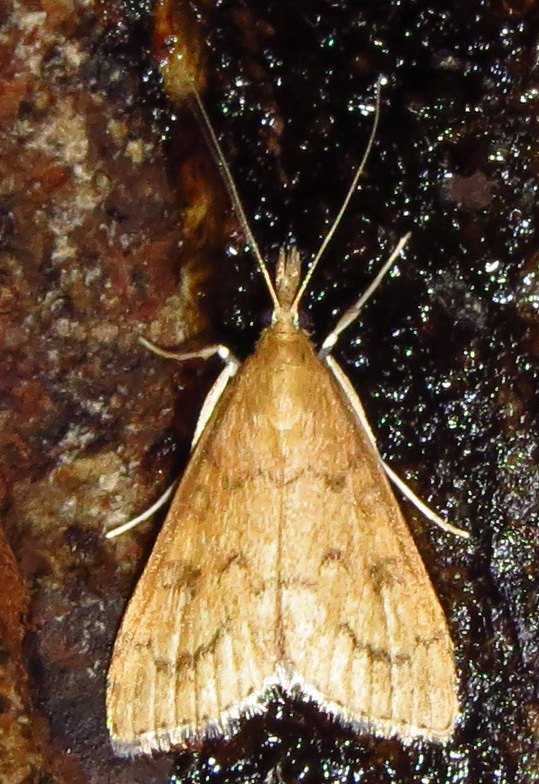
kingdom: Animalia
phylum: Arthropoda
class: Insecta
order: Lepidoptera
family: Crambidae
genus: Udea
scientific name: Udea rubigalis
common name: Celery leaftier moth
